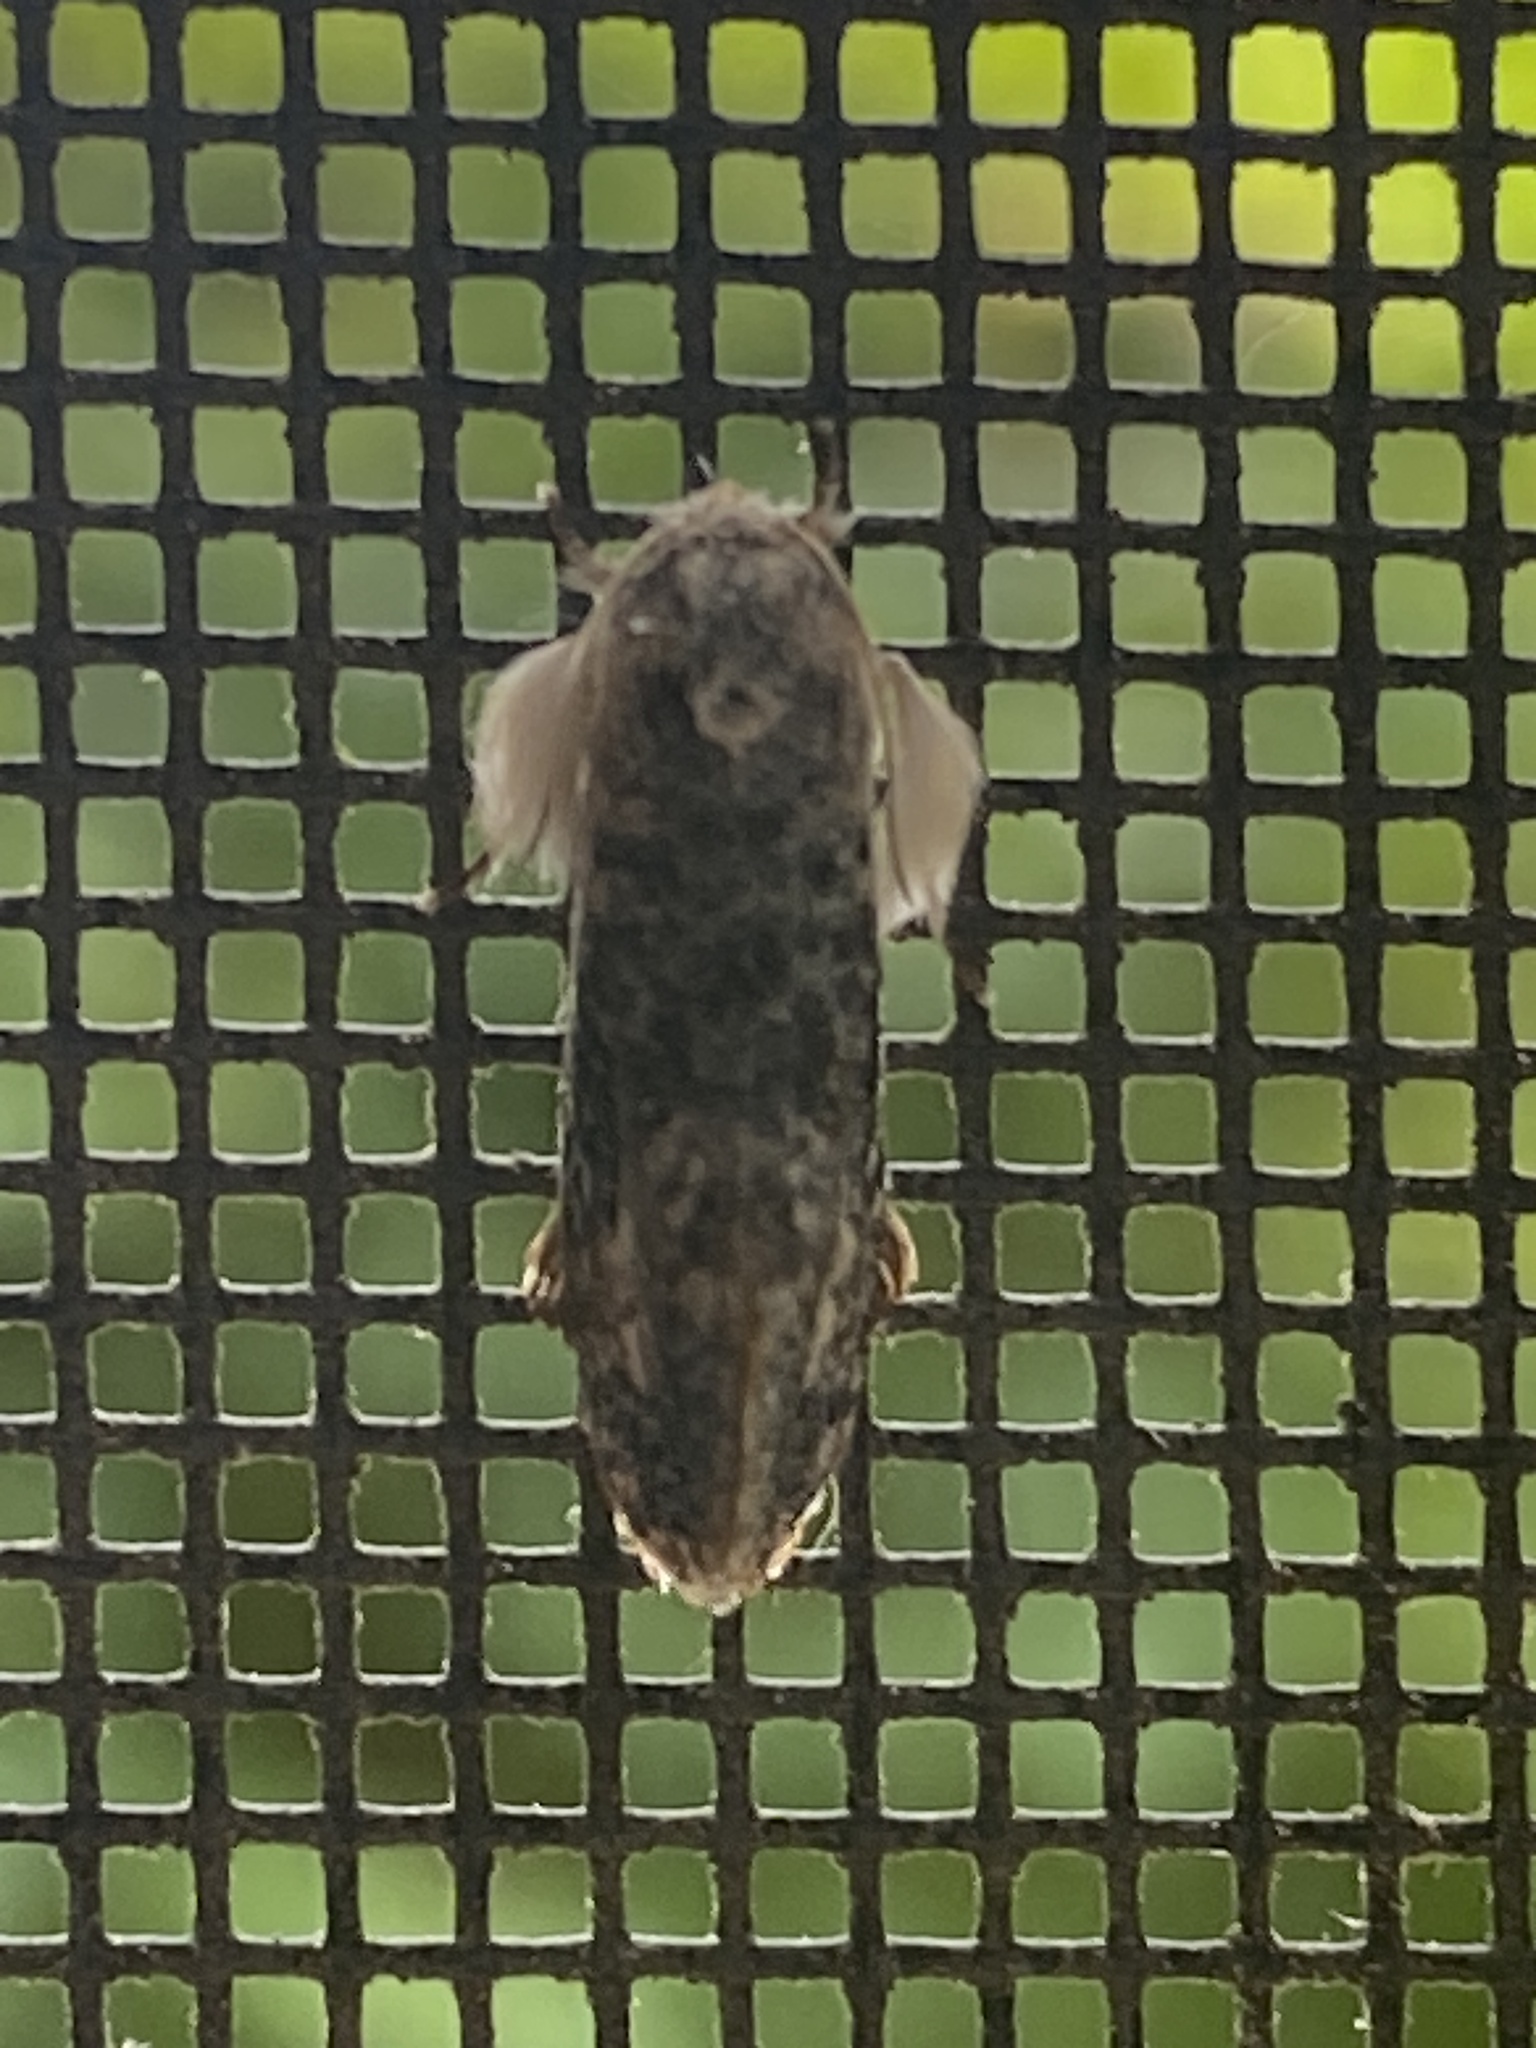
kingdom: Animalia
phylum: Arthropoda
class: Insecta
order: Lepidoptera
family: Tineidae
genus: Acrolophus
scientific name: Acrolophus mycetophagus
